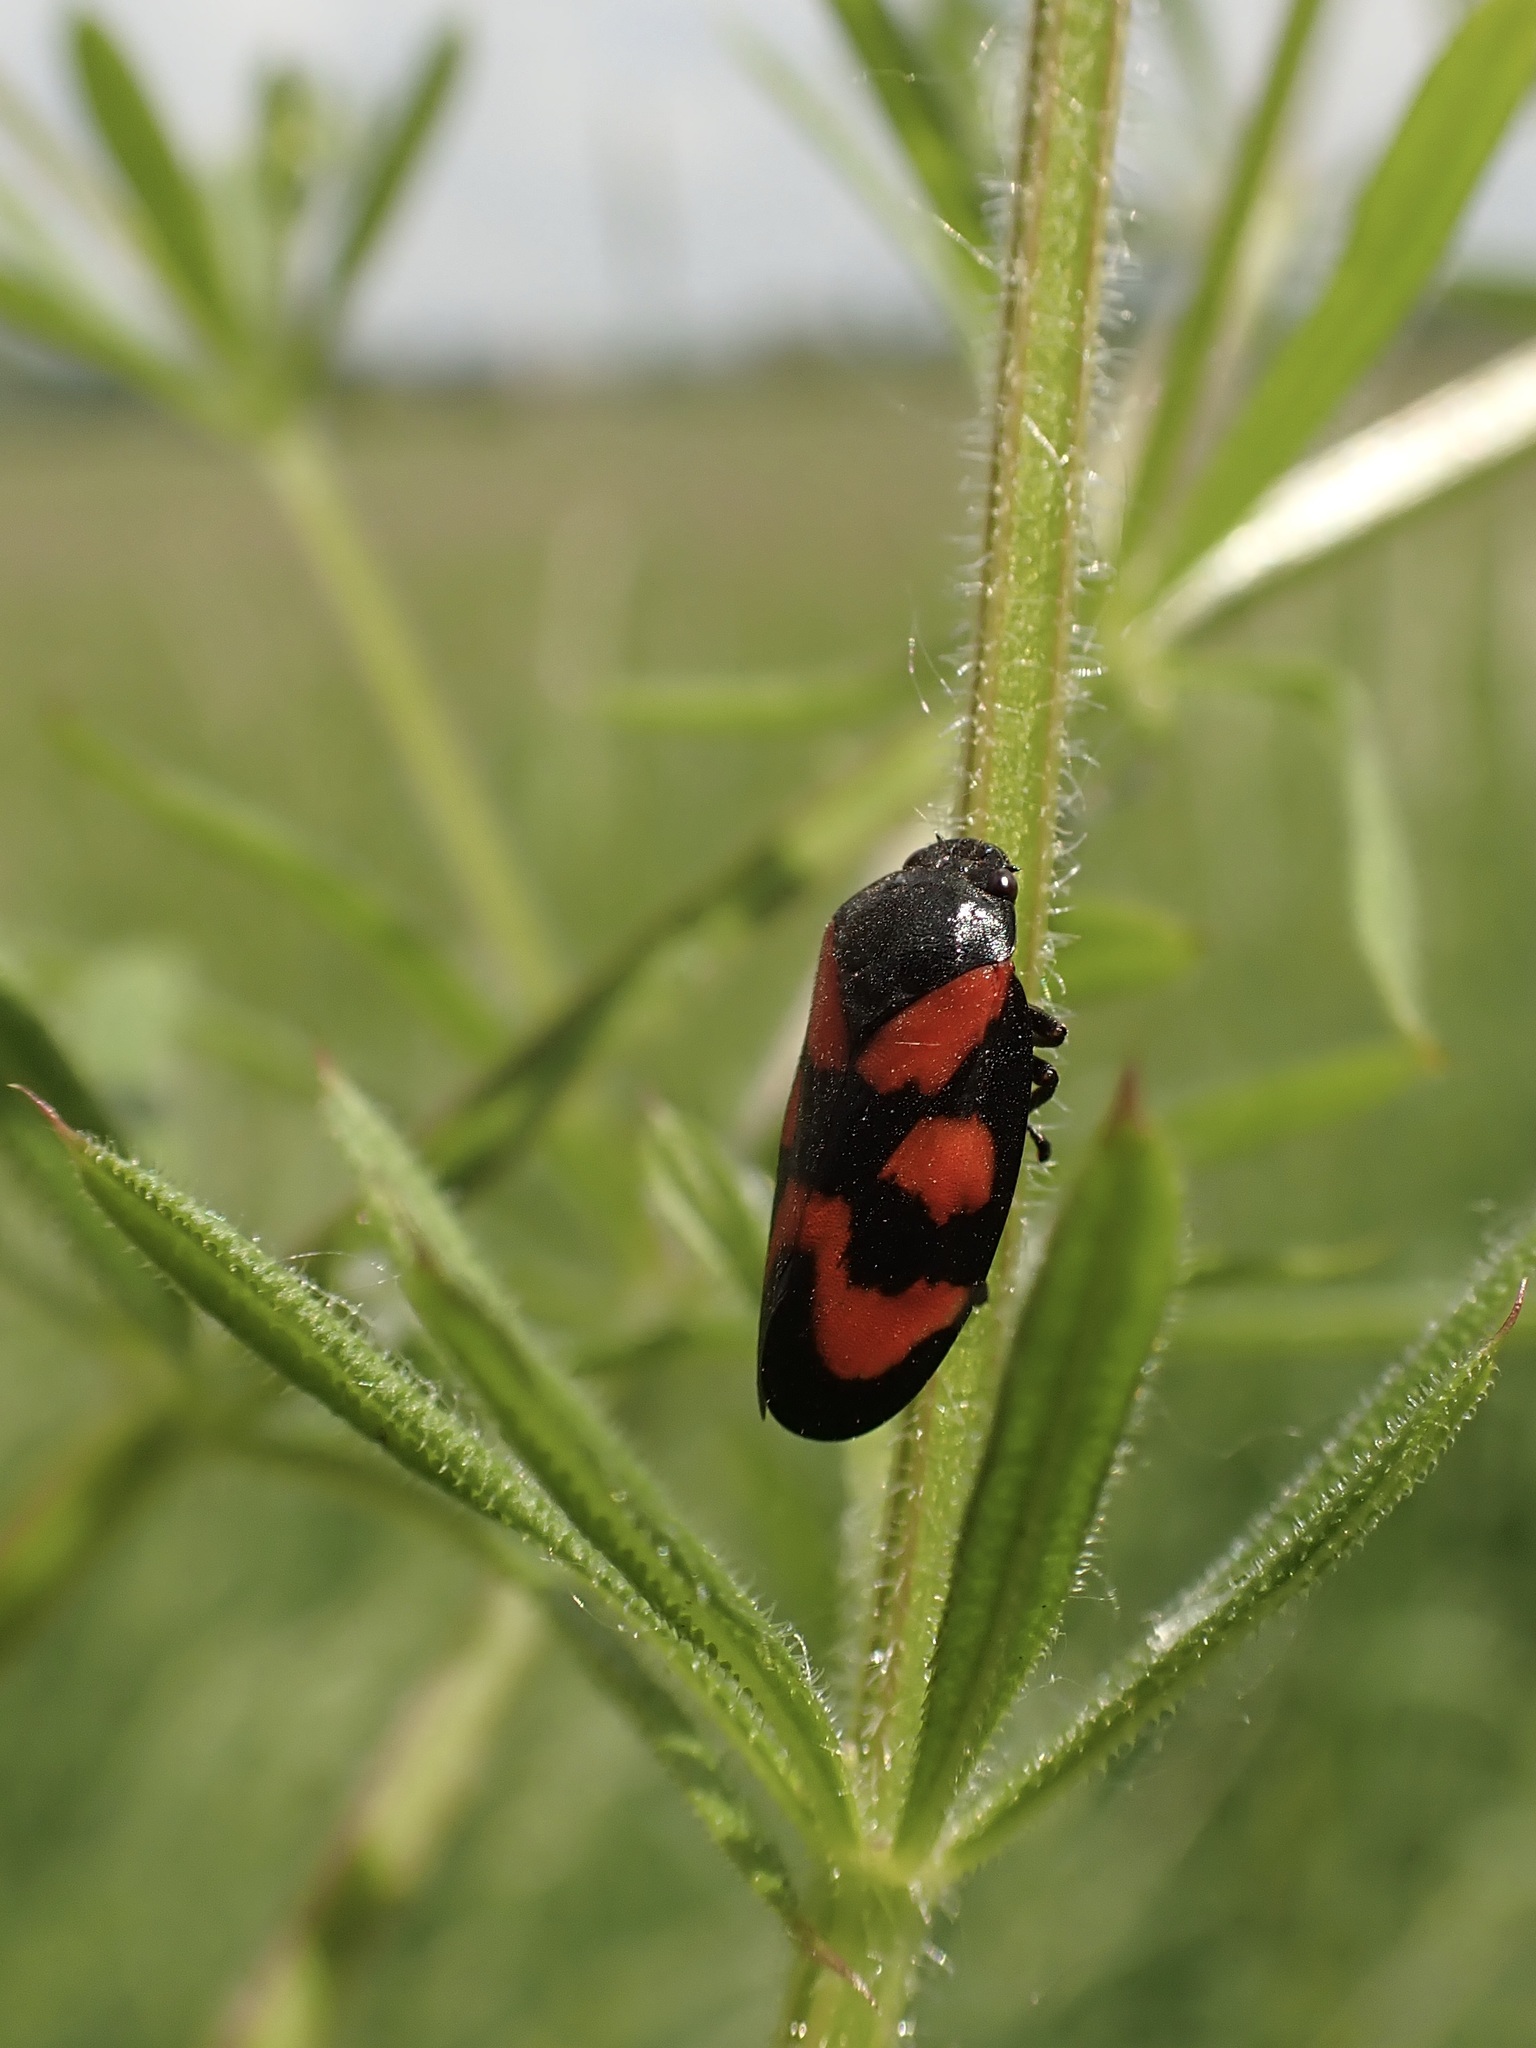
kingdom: Animalia
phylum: Arthropoda
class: Insecta
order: Hemiptera
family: Cercopidae
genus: Cercopis
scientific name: Cercopis vulnerata
